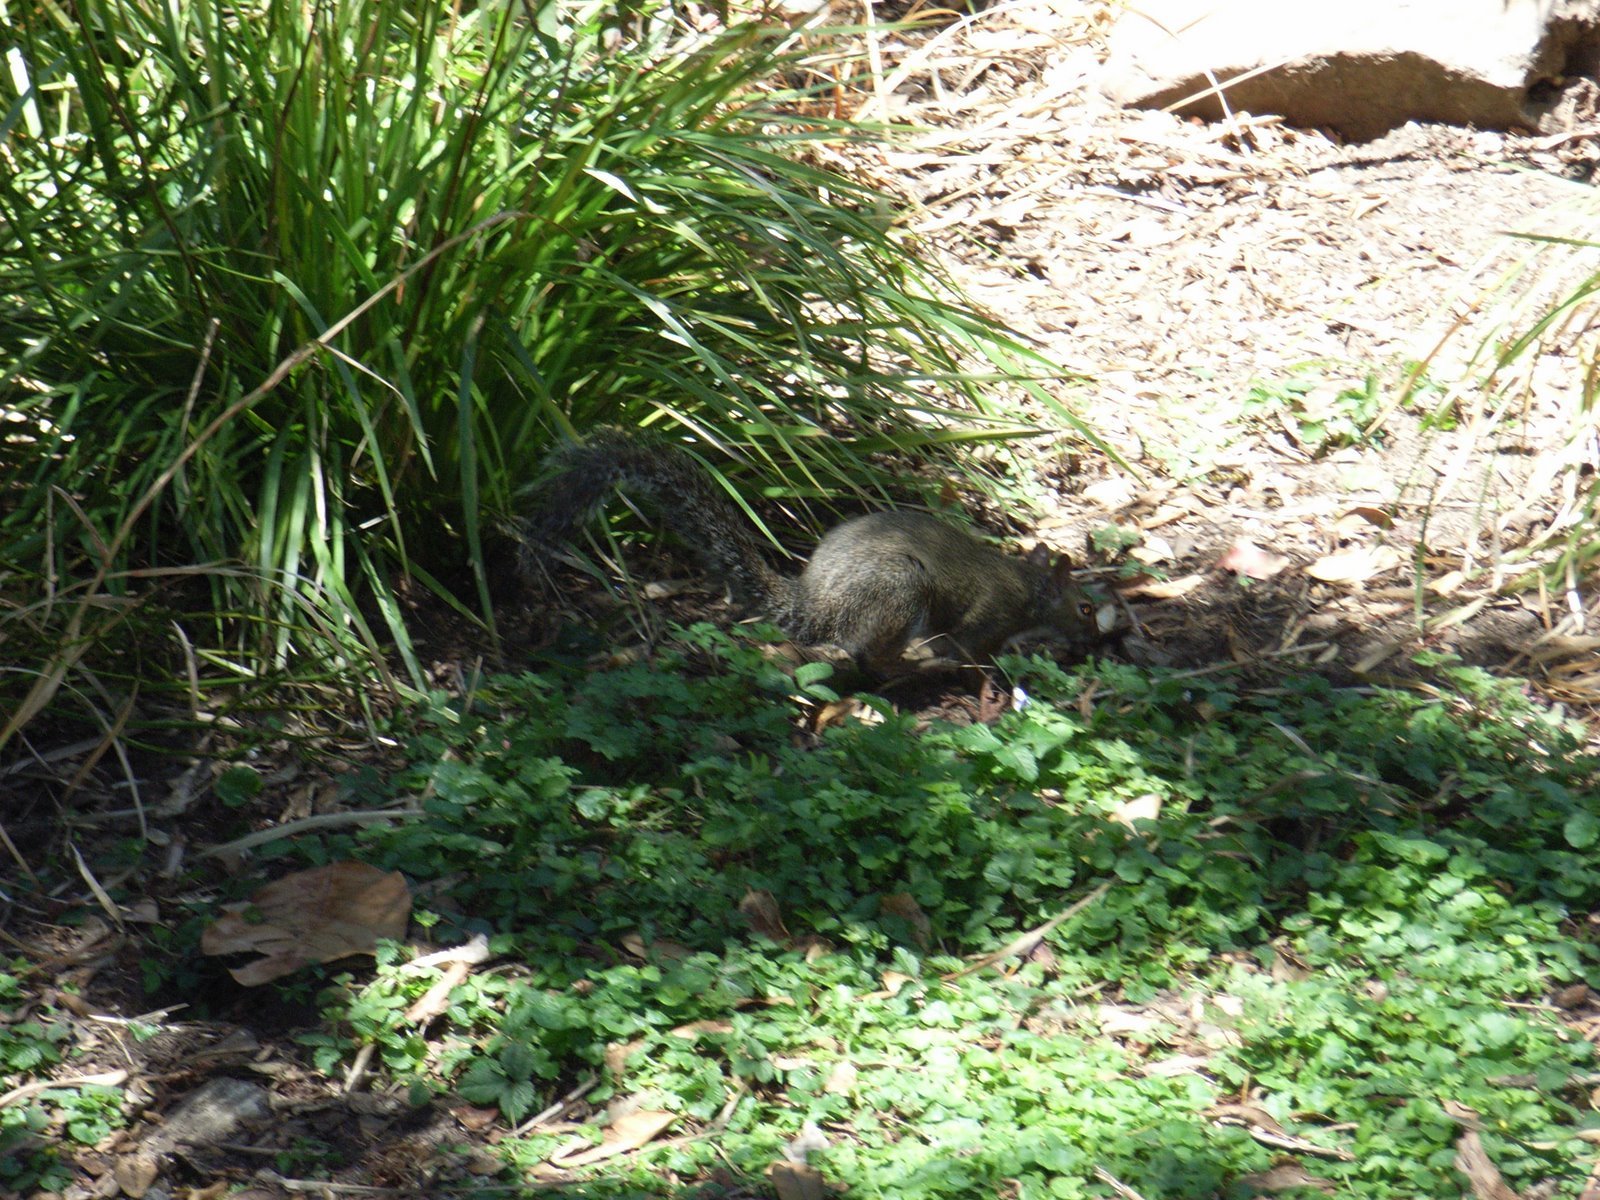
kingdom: Animalia
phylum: Chordata
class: Mammalia
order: Rodentia
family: Sciuridae
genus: Sciurus
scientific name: Sciurus carolinensis
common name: Eastern gray squirrel
